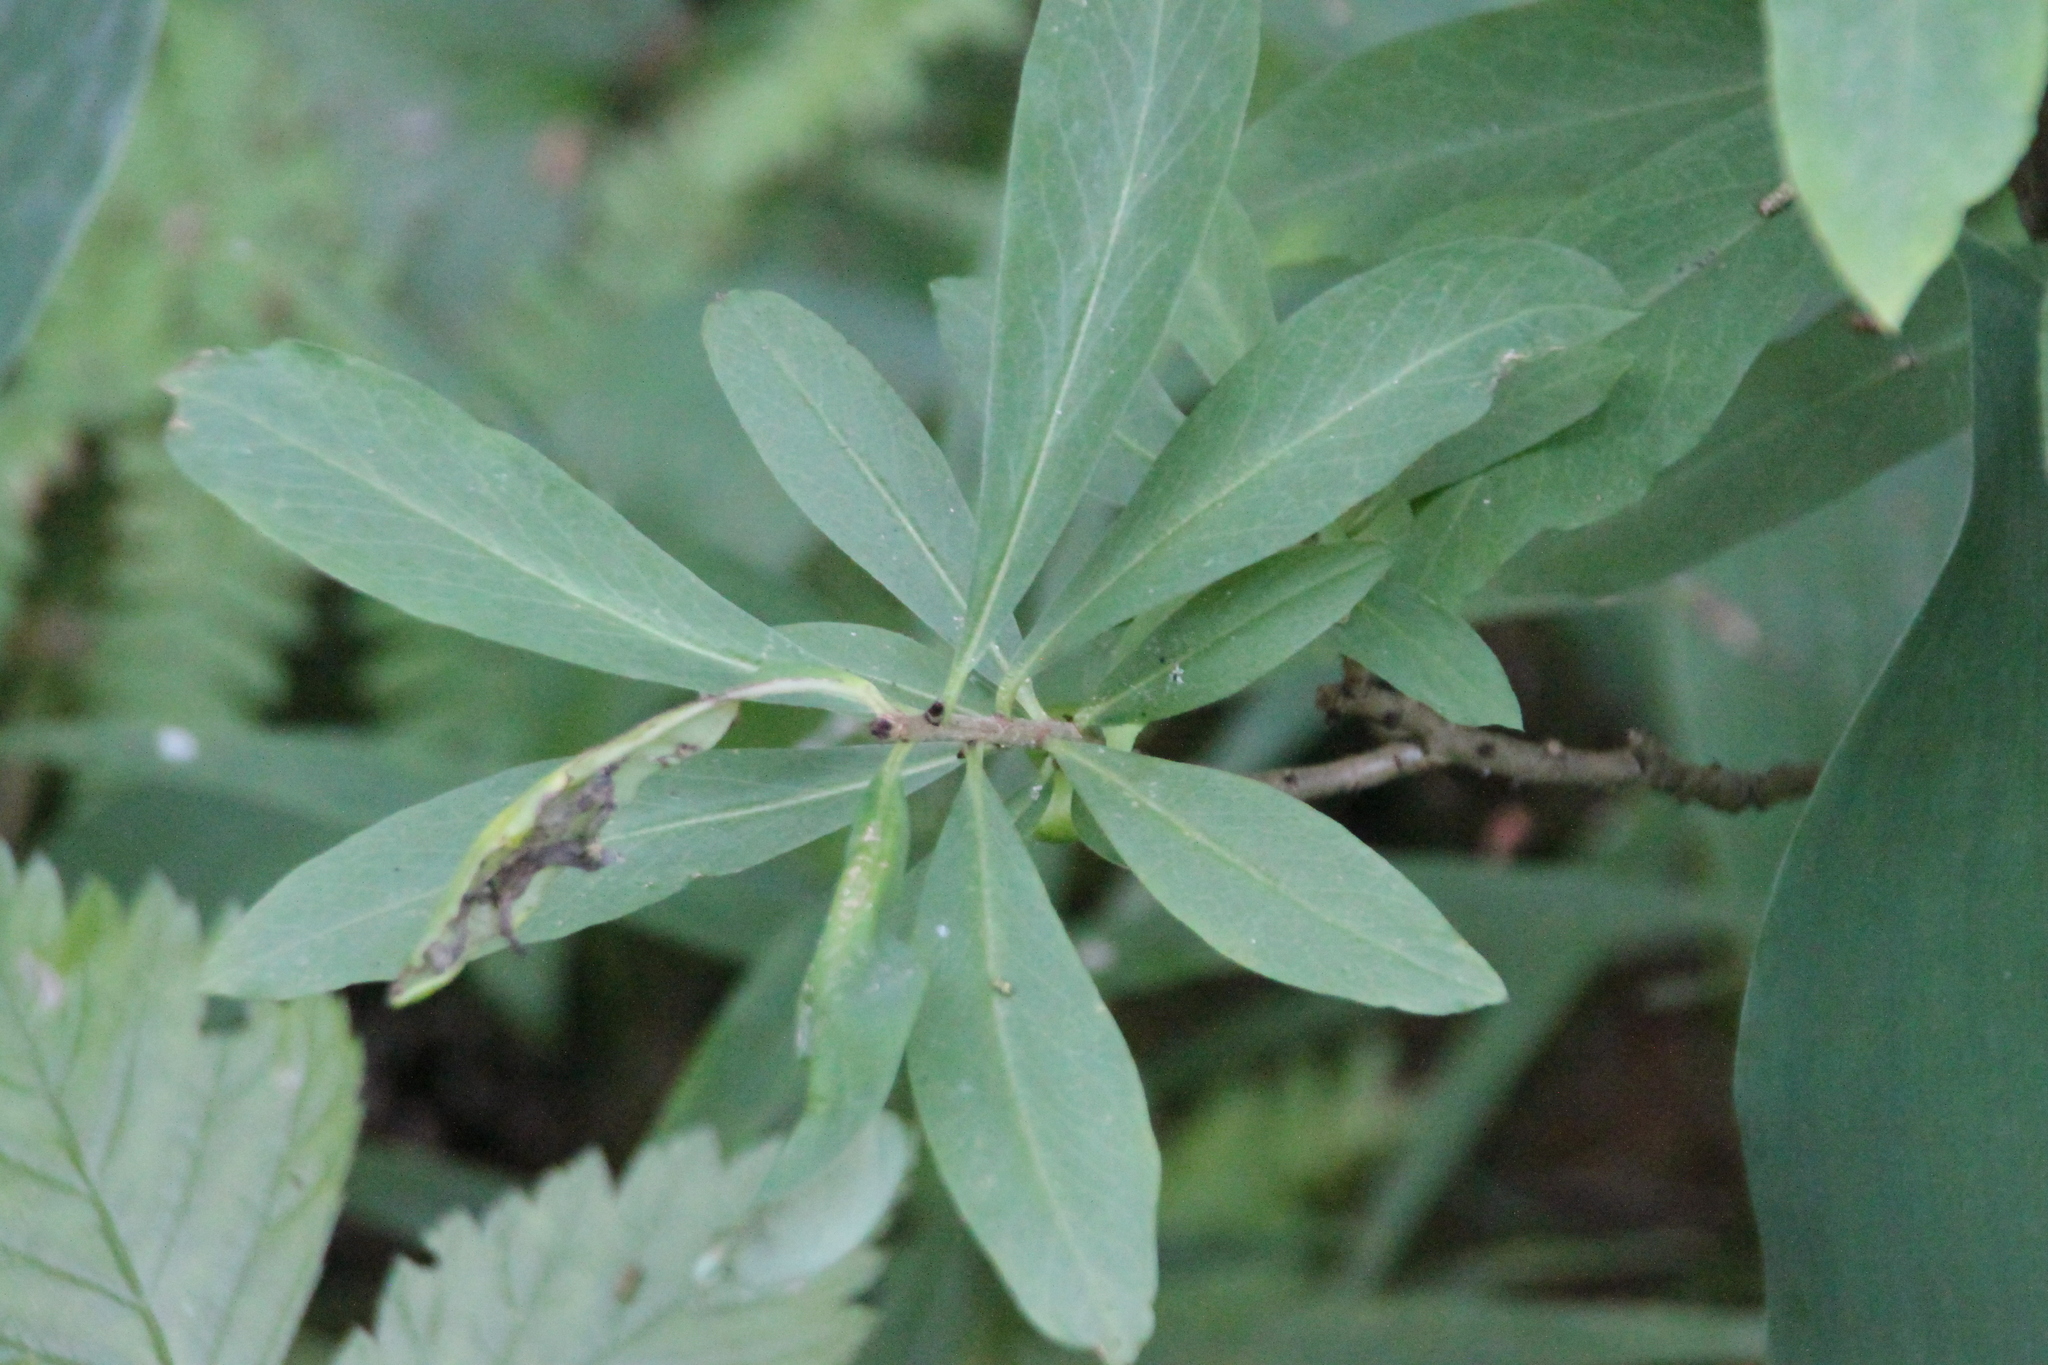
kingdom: Plantae
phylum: Tracheophyta
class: Magnoliopsida
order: Malvales
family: Thymelaeaceae
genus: Daphne
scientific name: Daphne mezereum
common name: Mezereon
